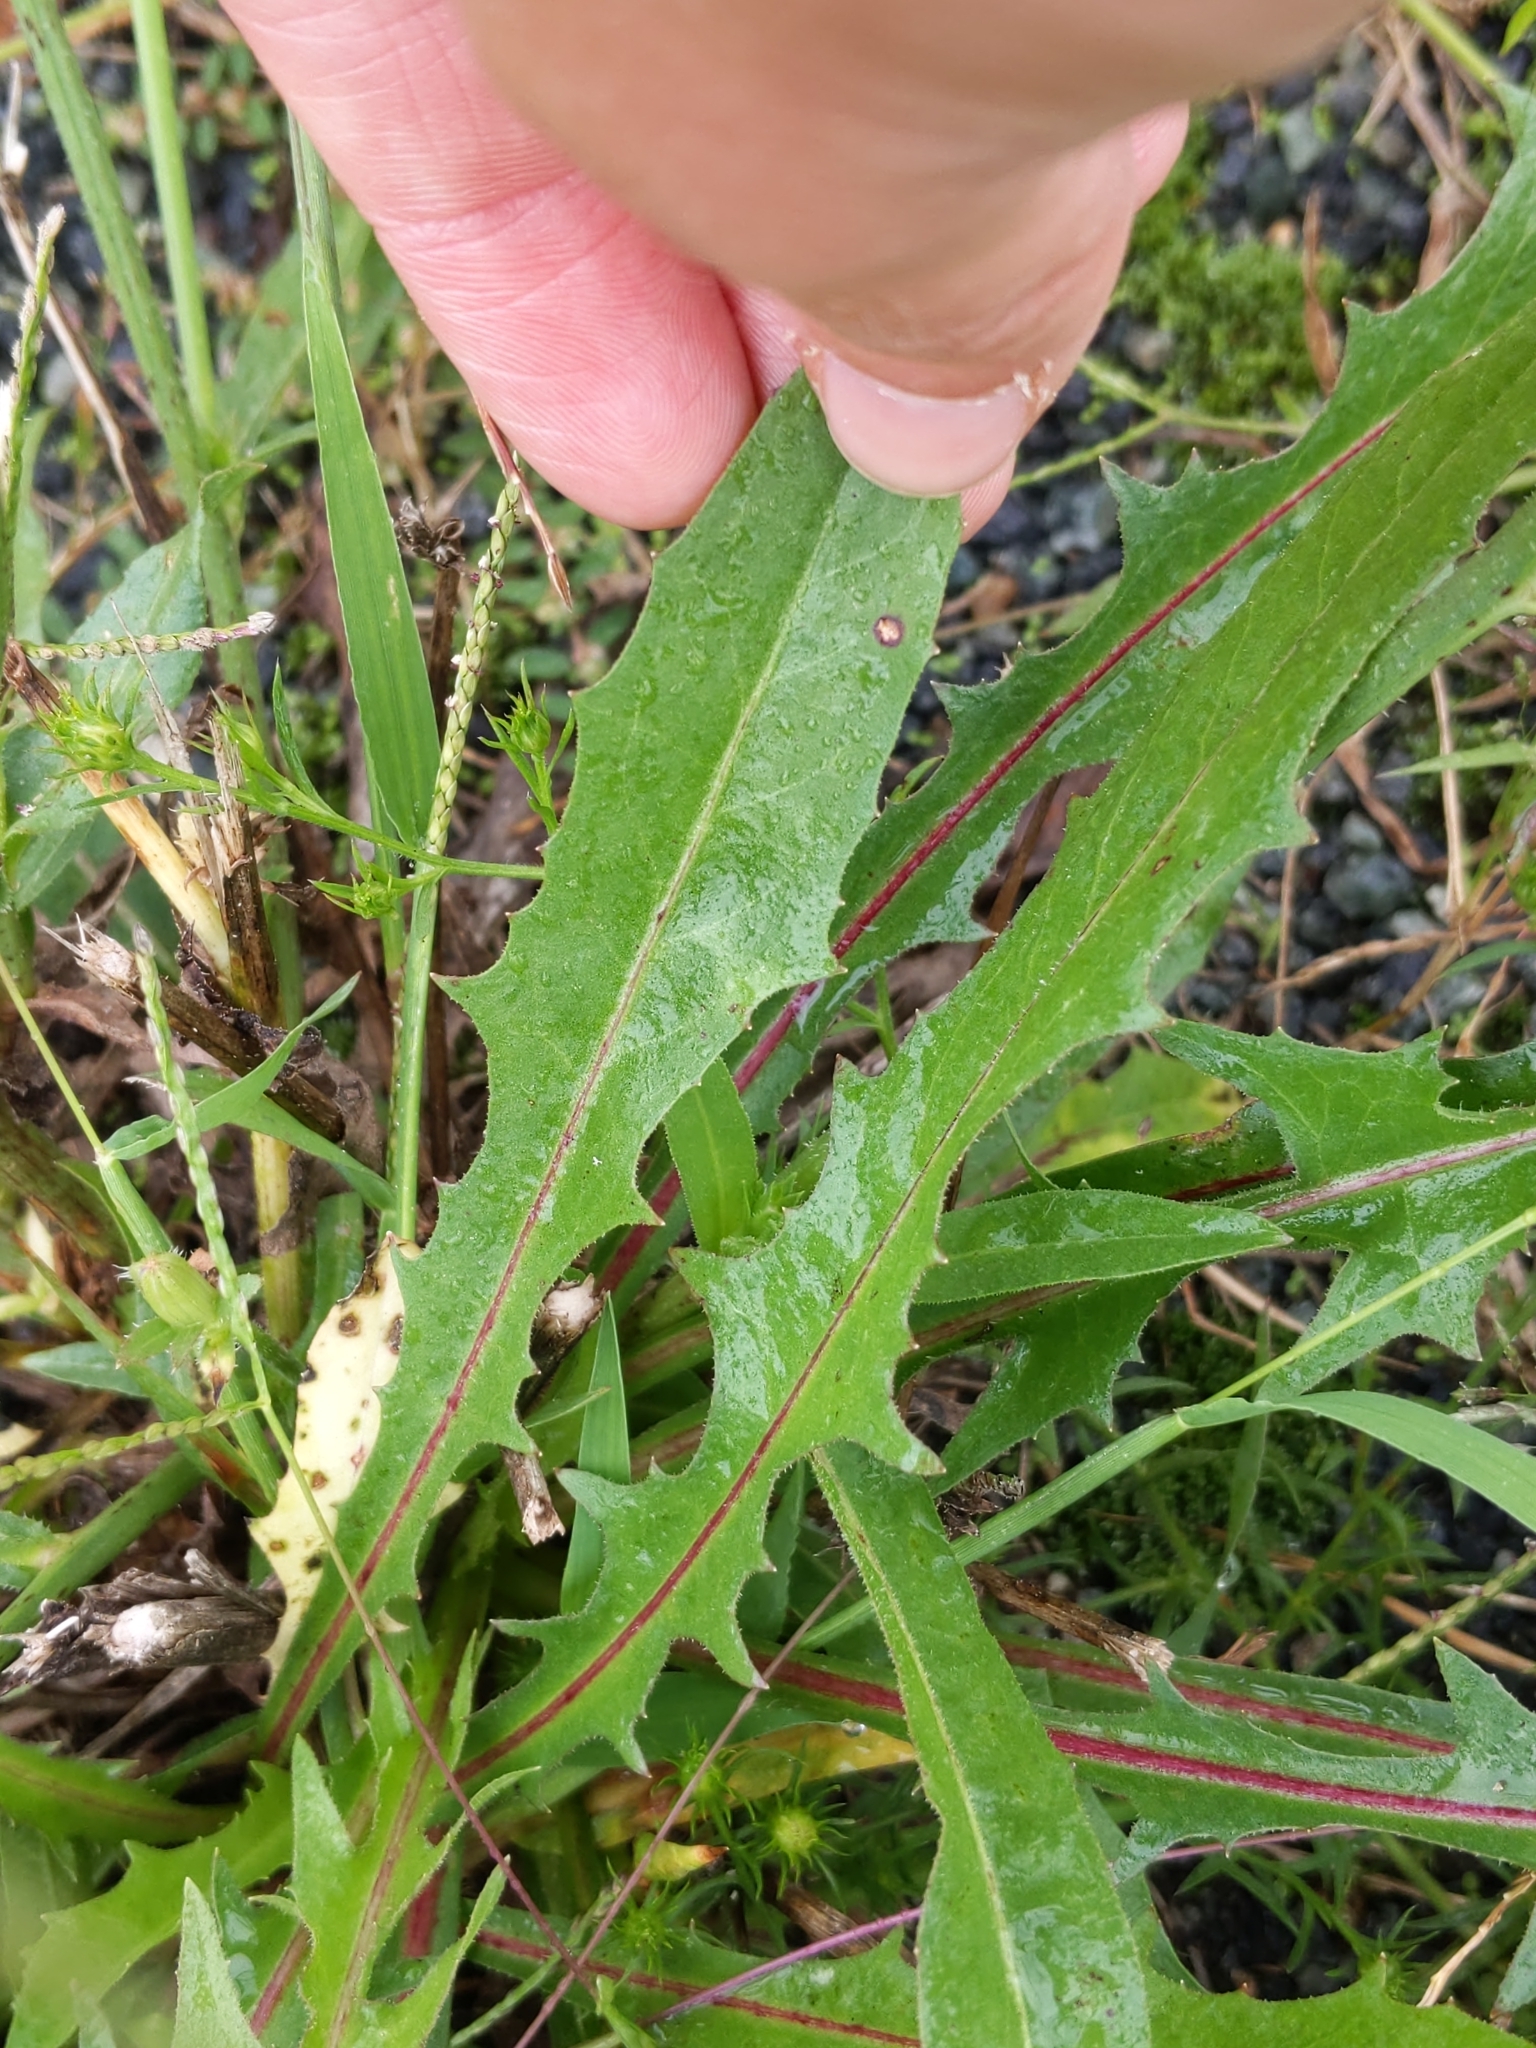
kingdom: Plantae
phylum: Tracheophyta
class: Magnoliopsida
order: Asterales
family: Asteraceae
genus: Cichorium
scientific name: Cichorium intybus
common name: Chicory
